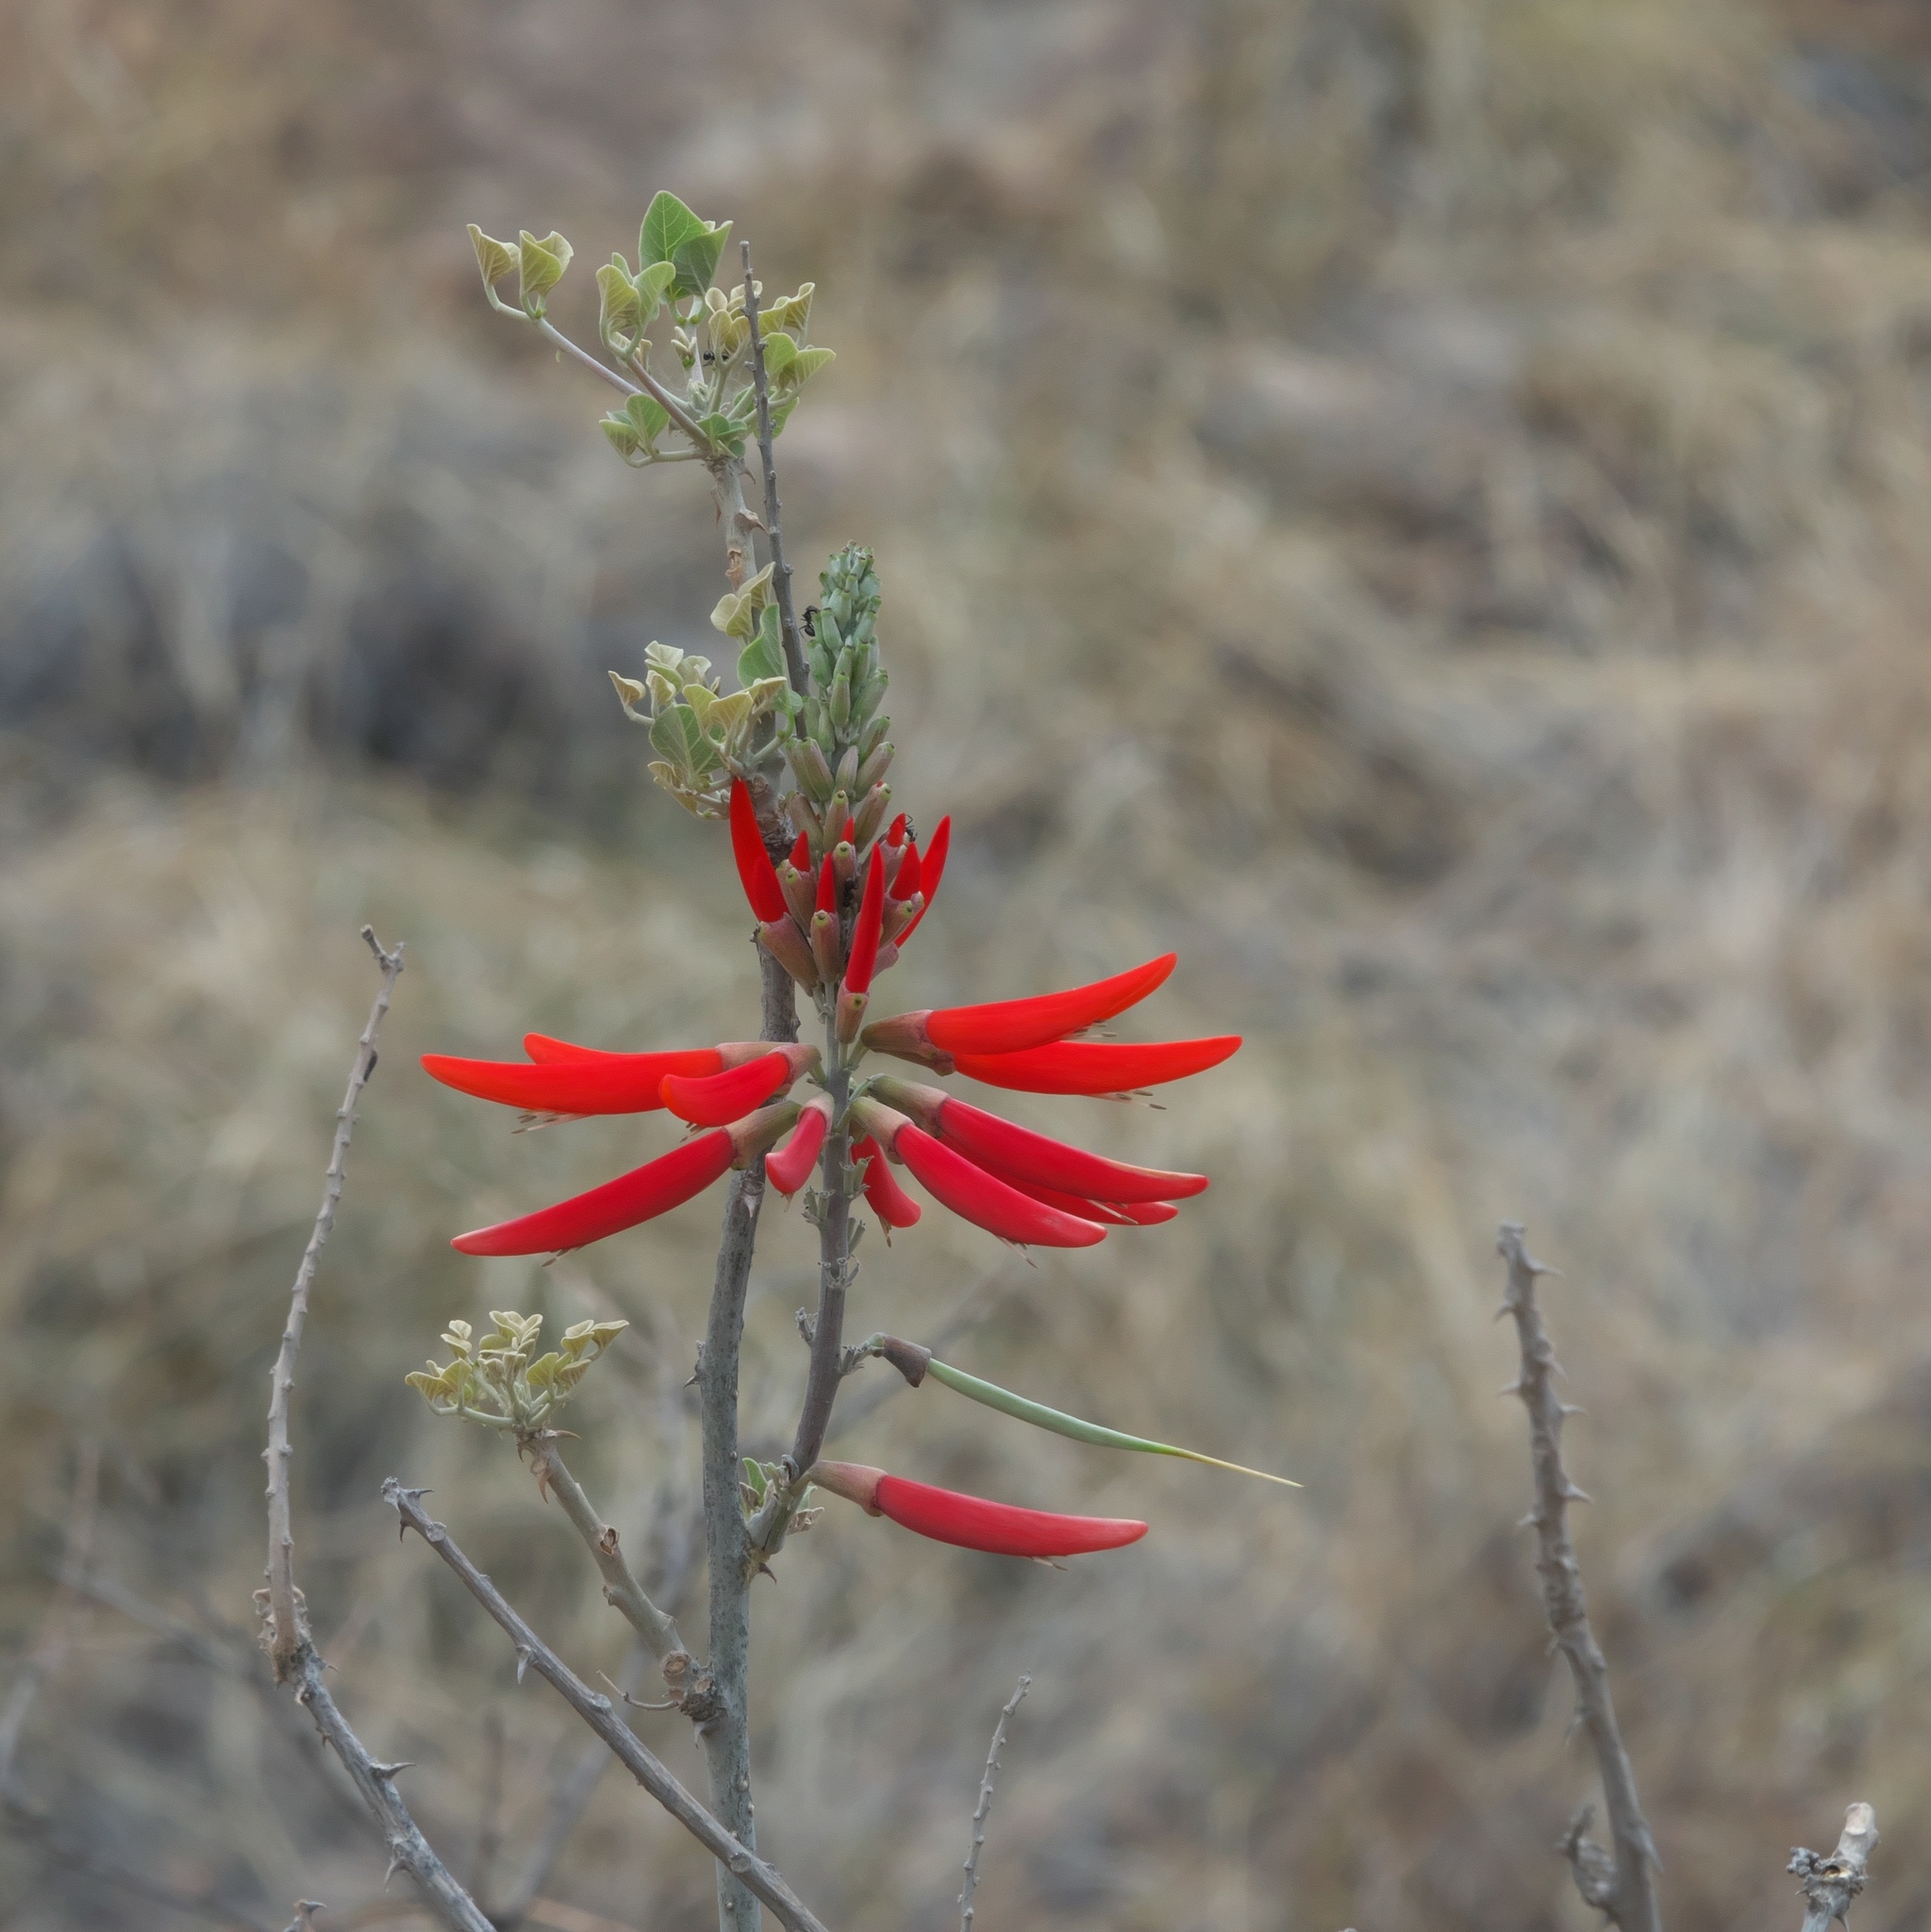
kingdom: Plantae
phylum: Tracheophyta
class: Magnoliopsida
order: Fabales
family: Fabaceae
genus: Erythrina
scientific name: Erythrina flabelliformis
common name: Chilicote
